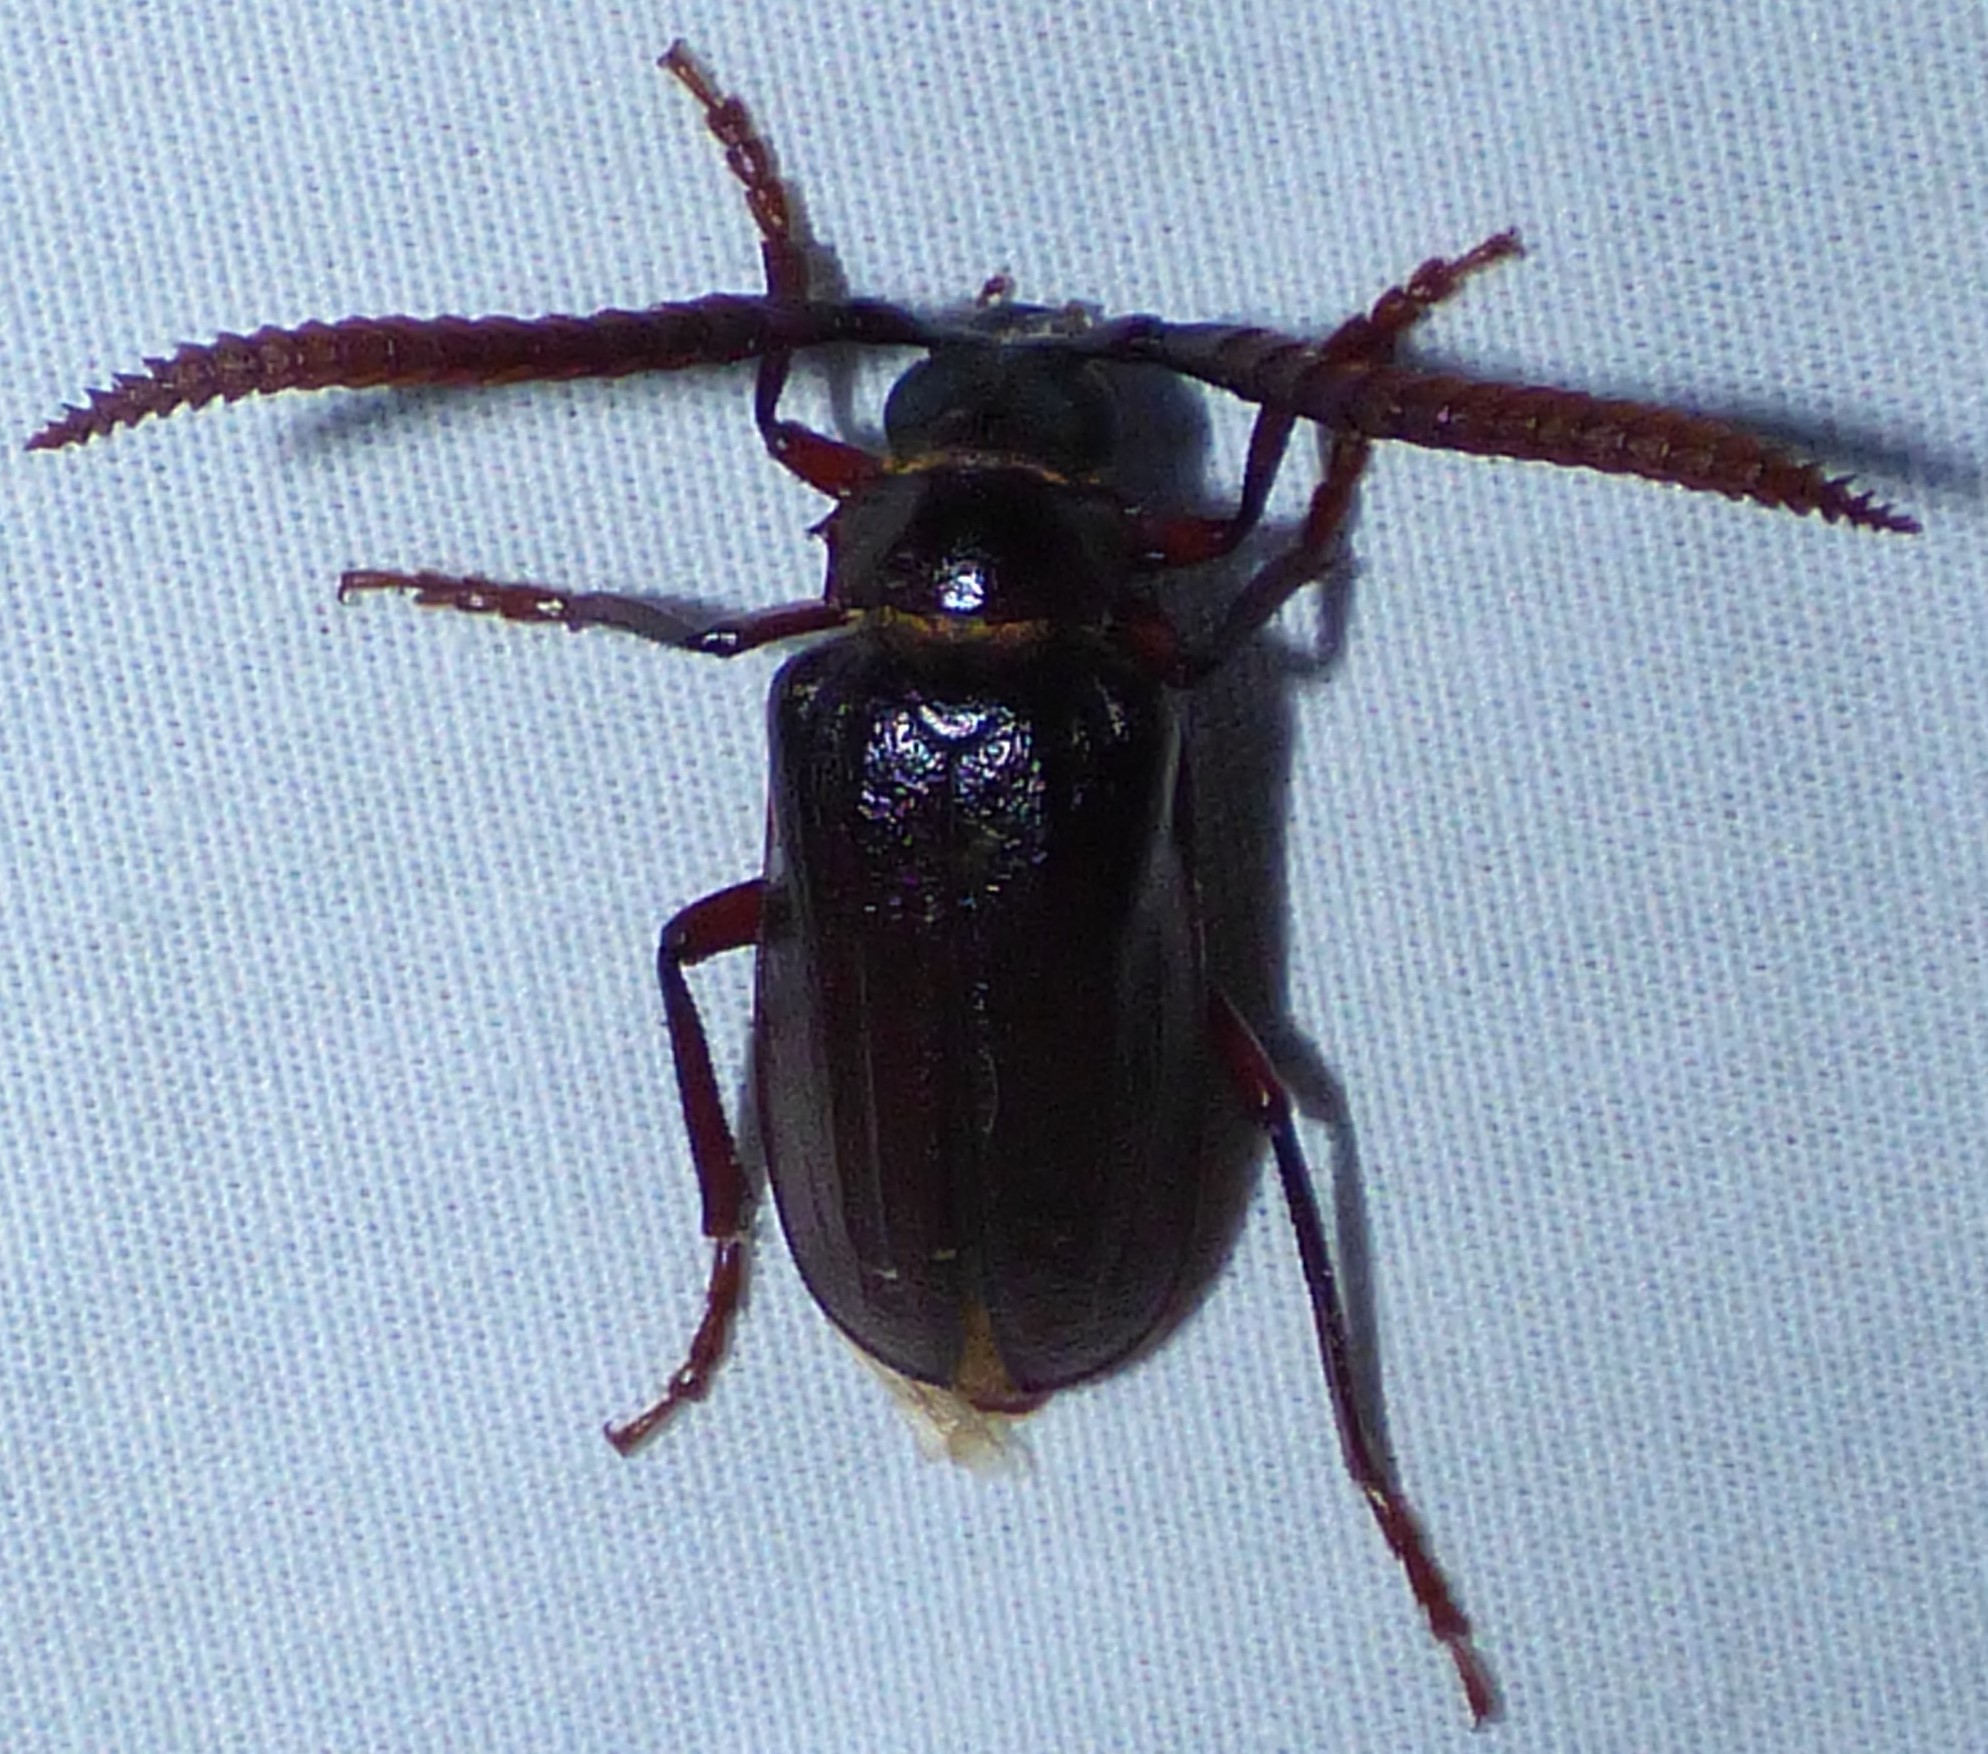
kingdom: Animalia
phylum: Arthropoda
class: Insecta
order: Coleoptera
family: Cerambycidae
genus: Prionus
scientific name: Prionus imbricornis
